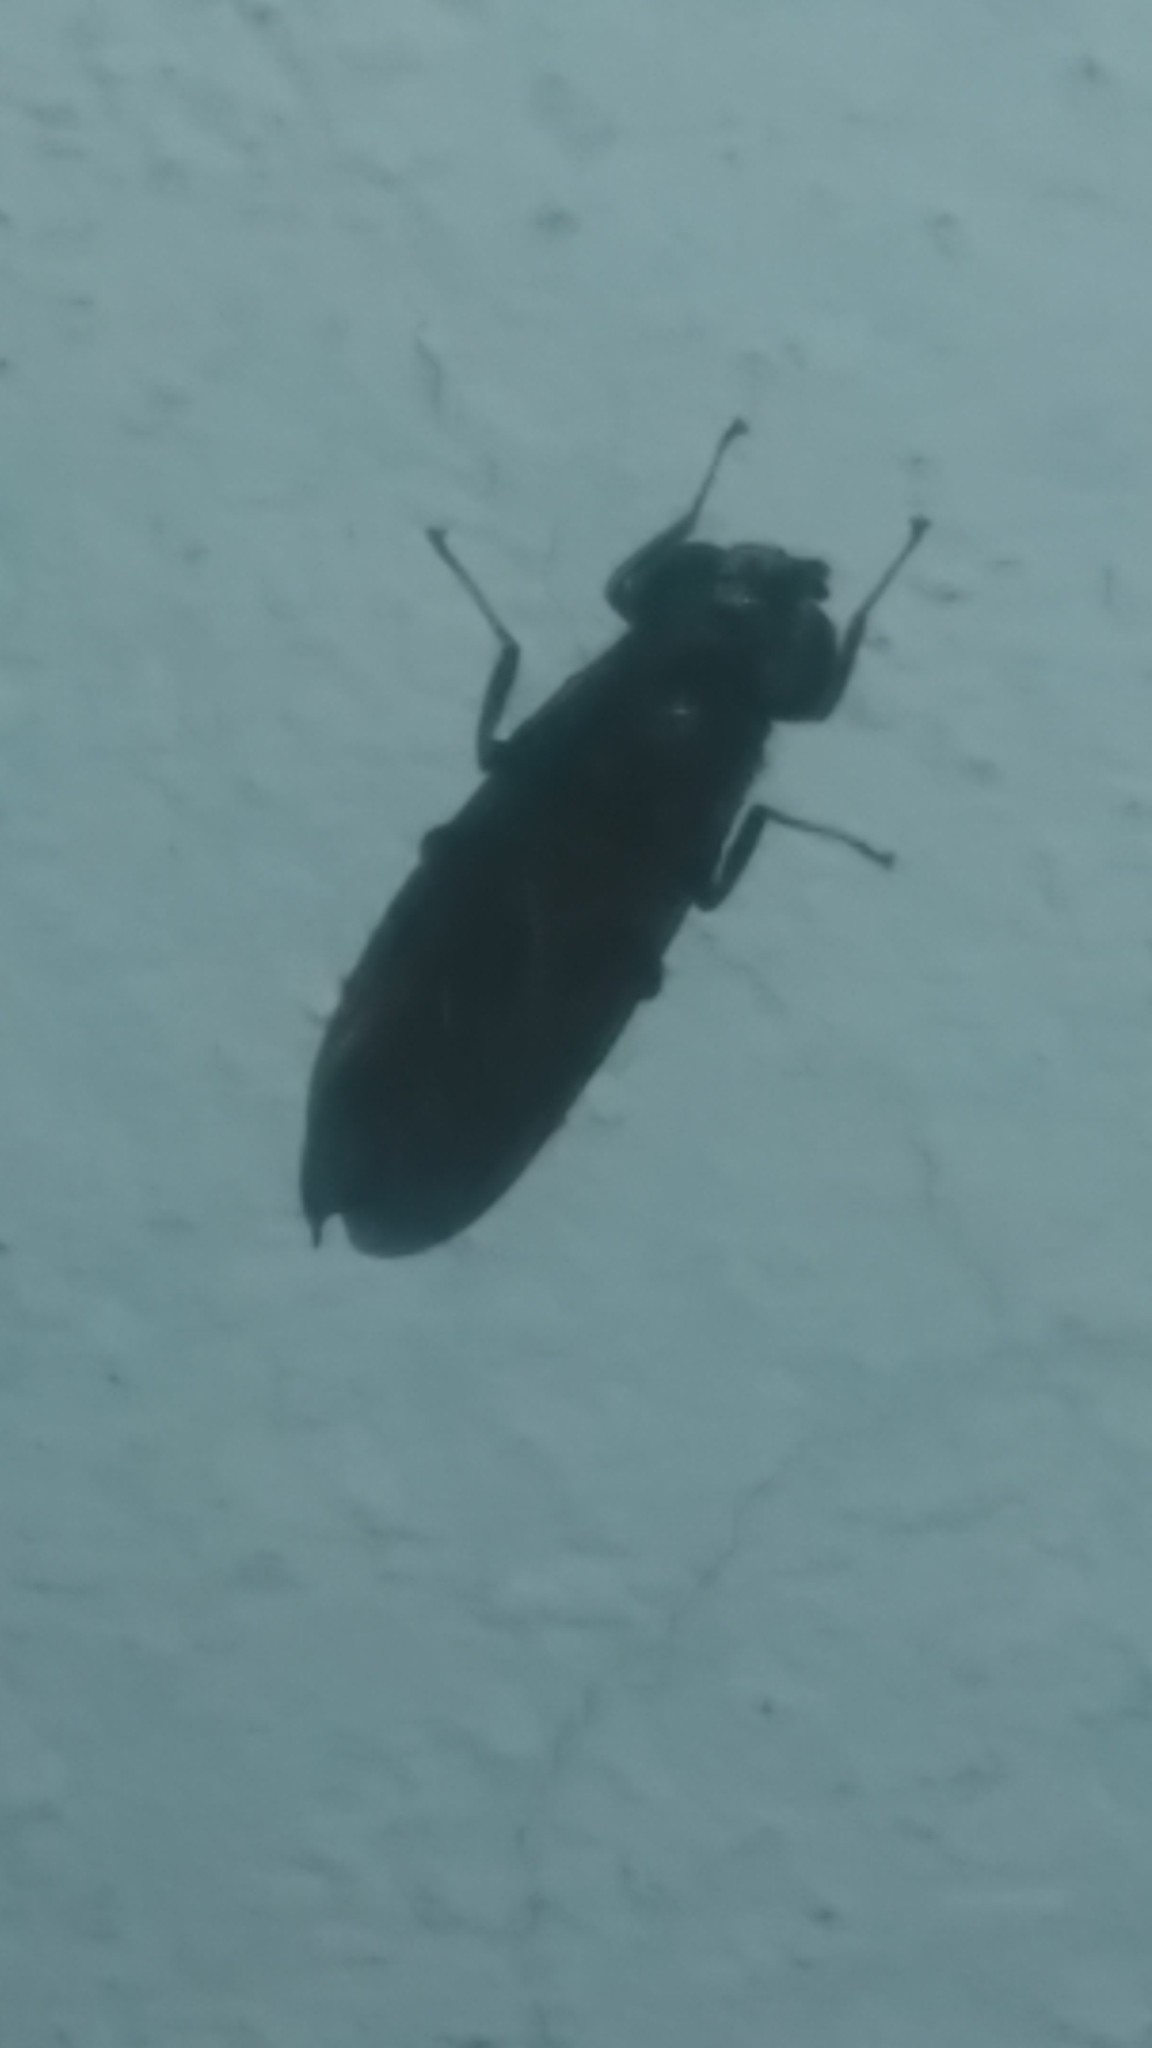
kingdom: Animalia
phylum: Arthropoda
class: Insecta
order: Diptera
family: Stratiomyidae
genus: Hermetia
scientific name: Hermetia illucens
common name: Black soldier fly
